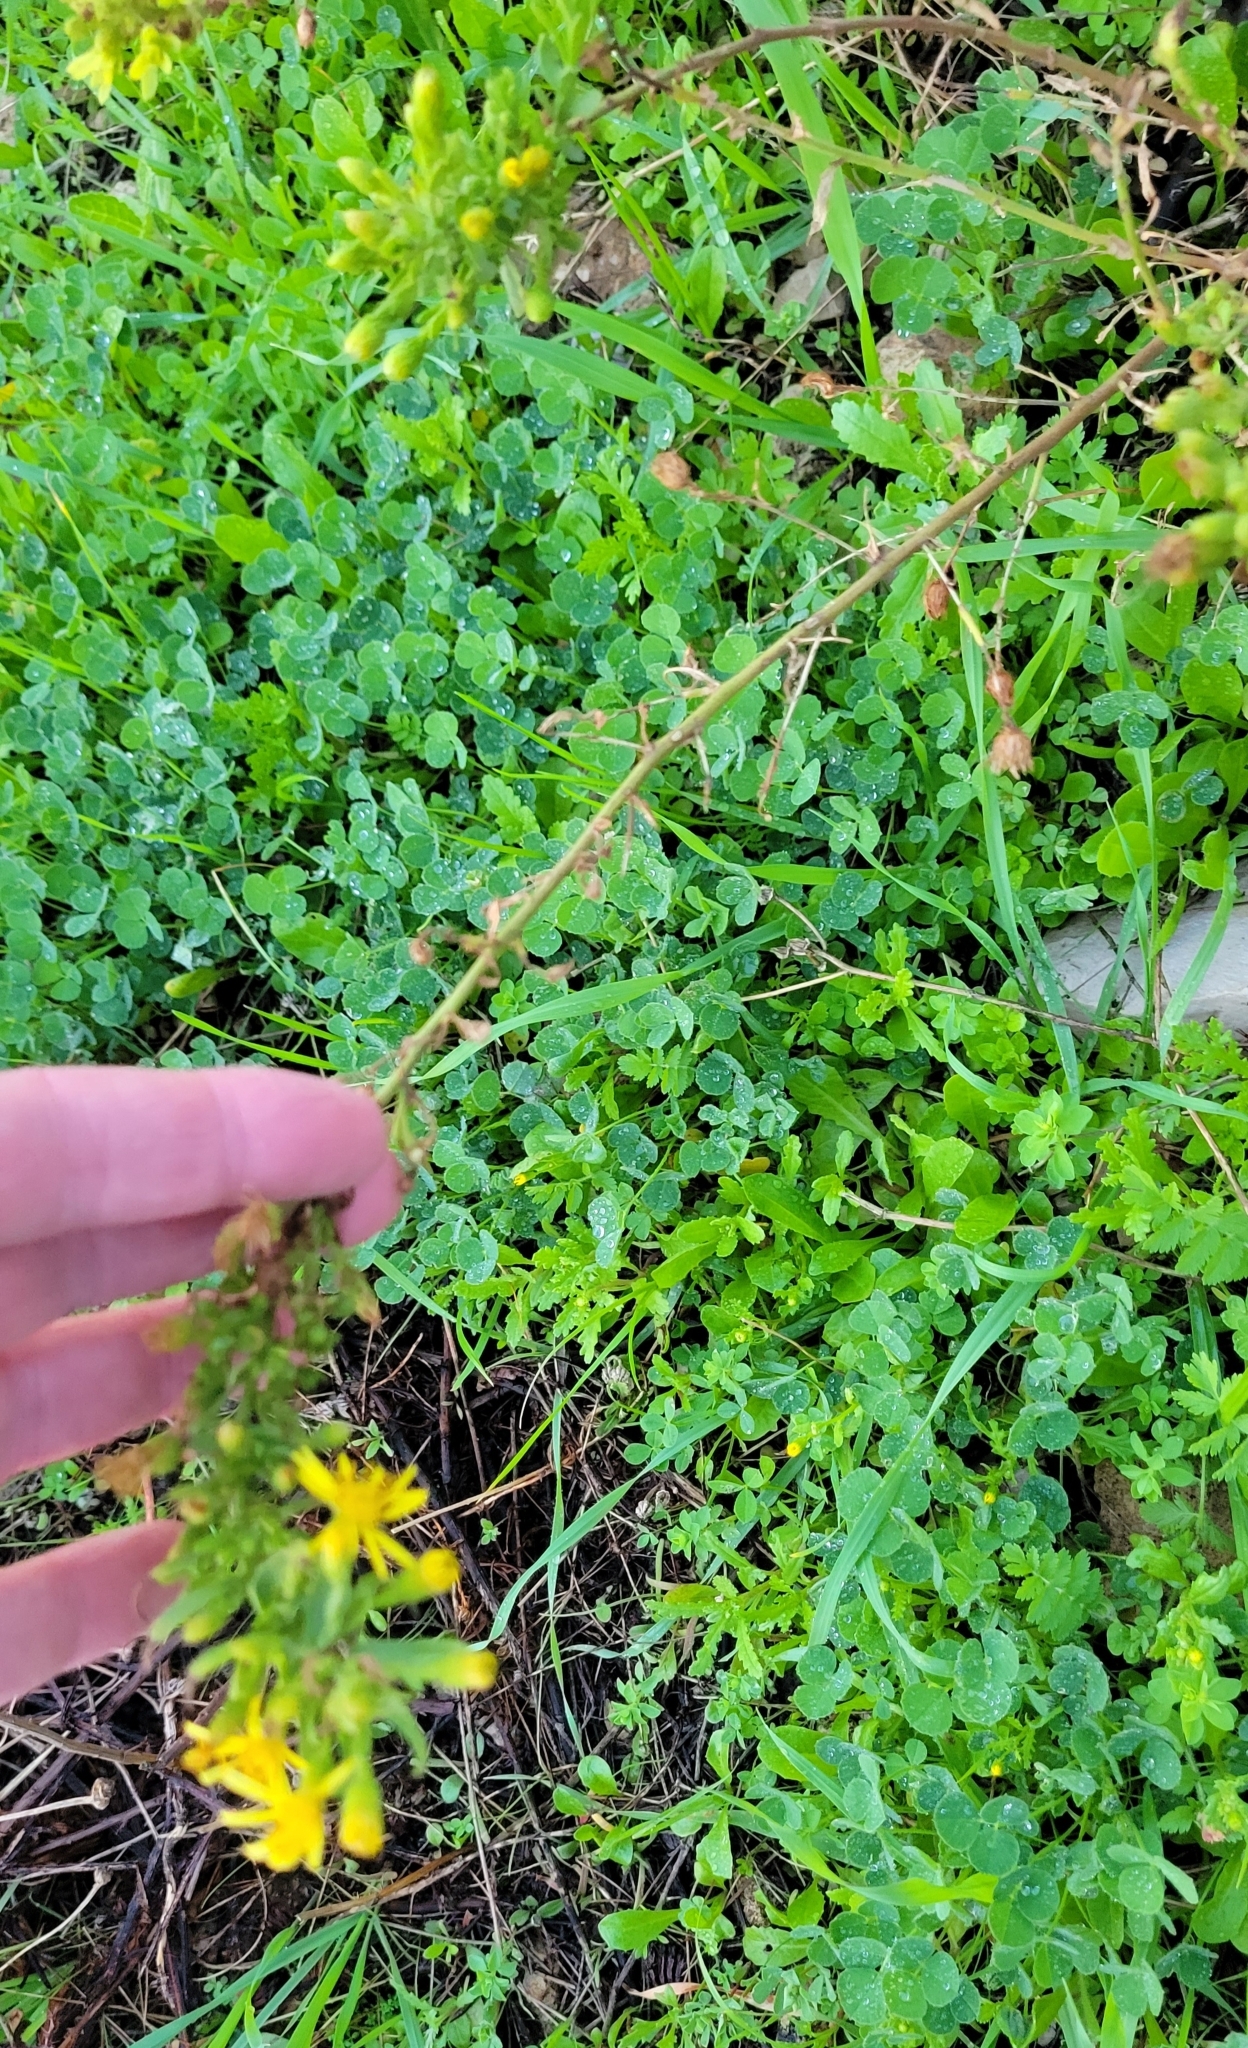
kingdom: Plantae
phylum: Tracheophyta
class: Magnoliopsida
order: Asterales
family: Asteraceae
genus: Dittrichia
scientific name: Dittrichia viscosa
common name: Woody fleabane
